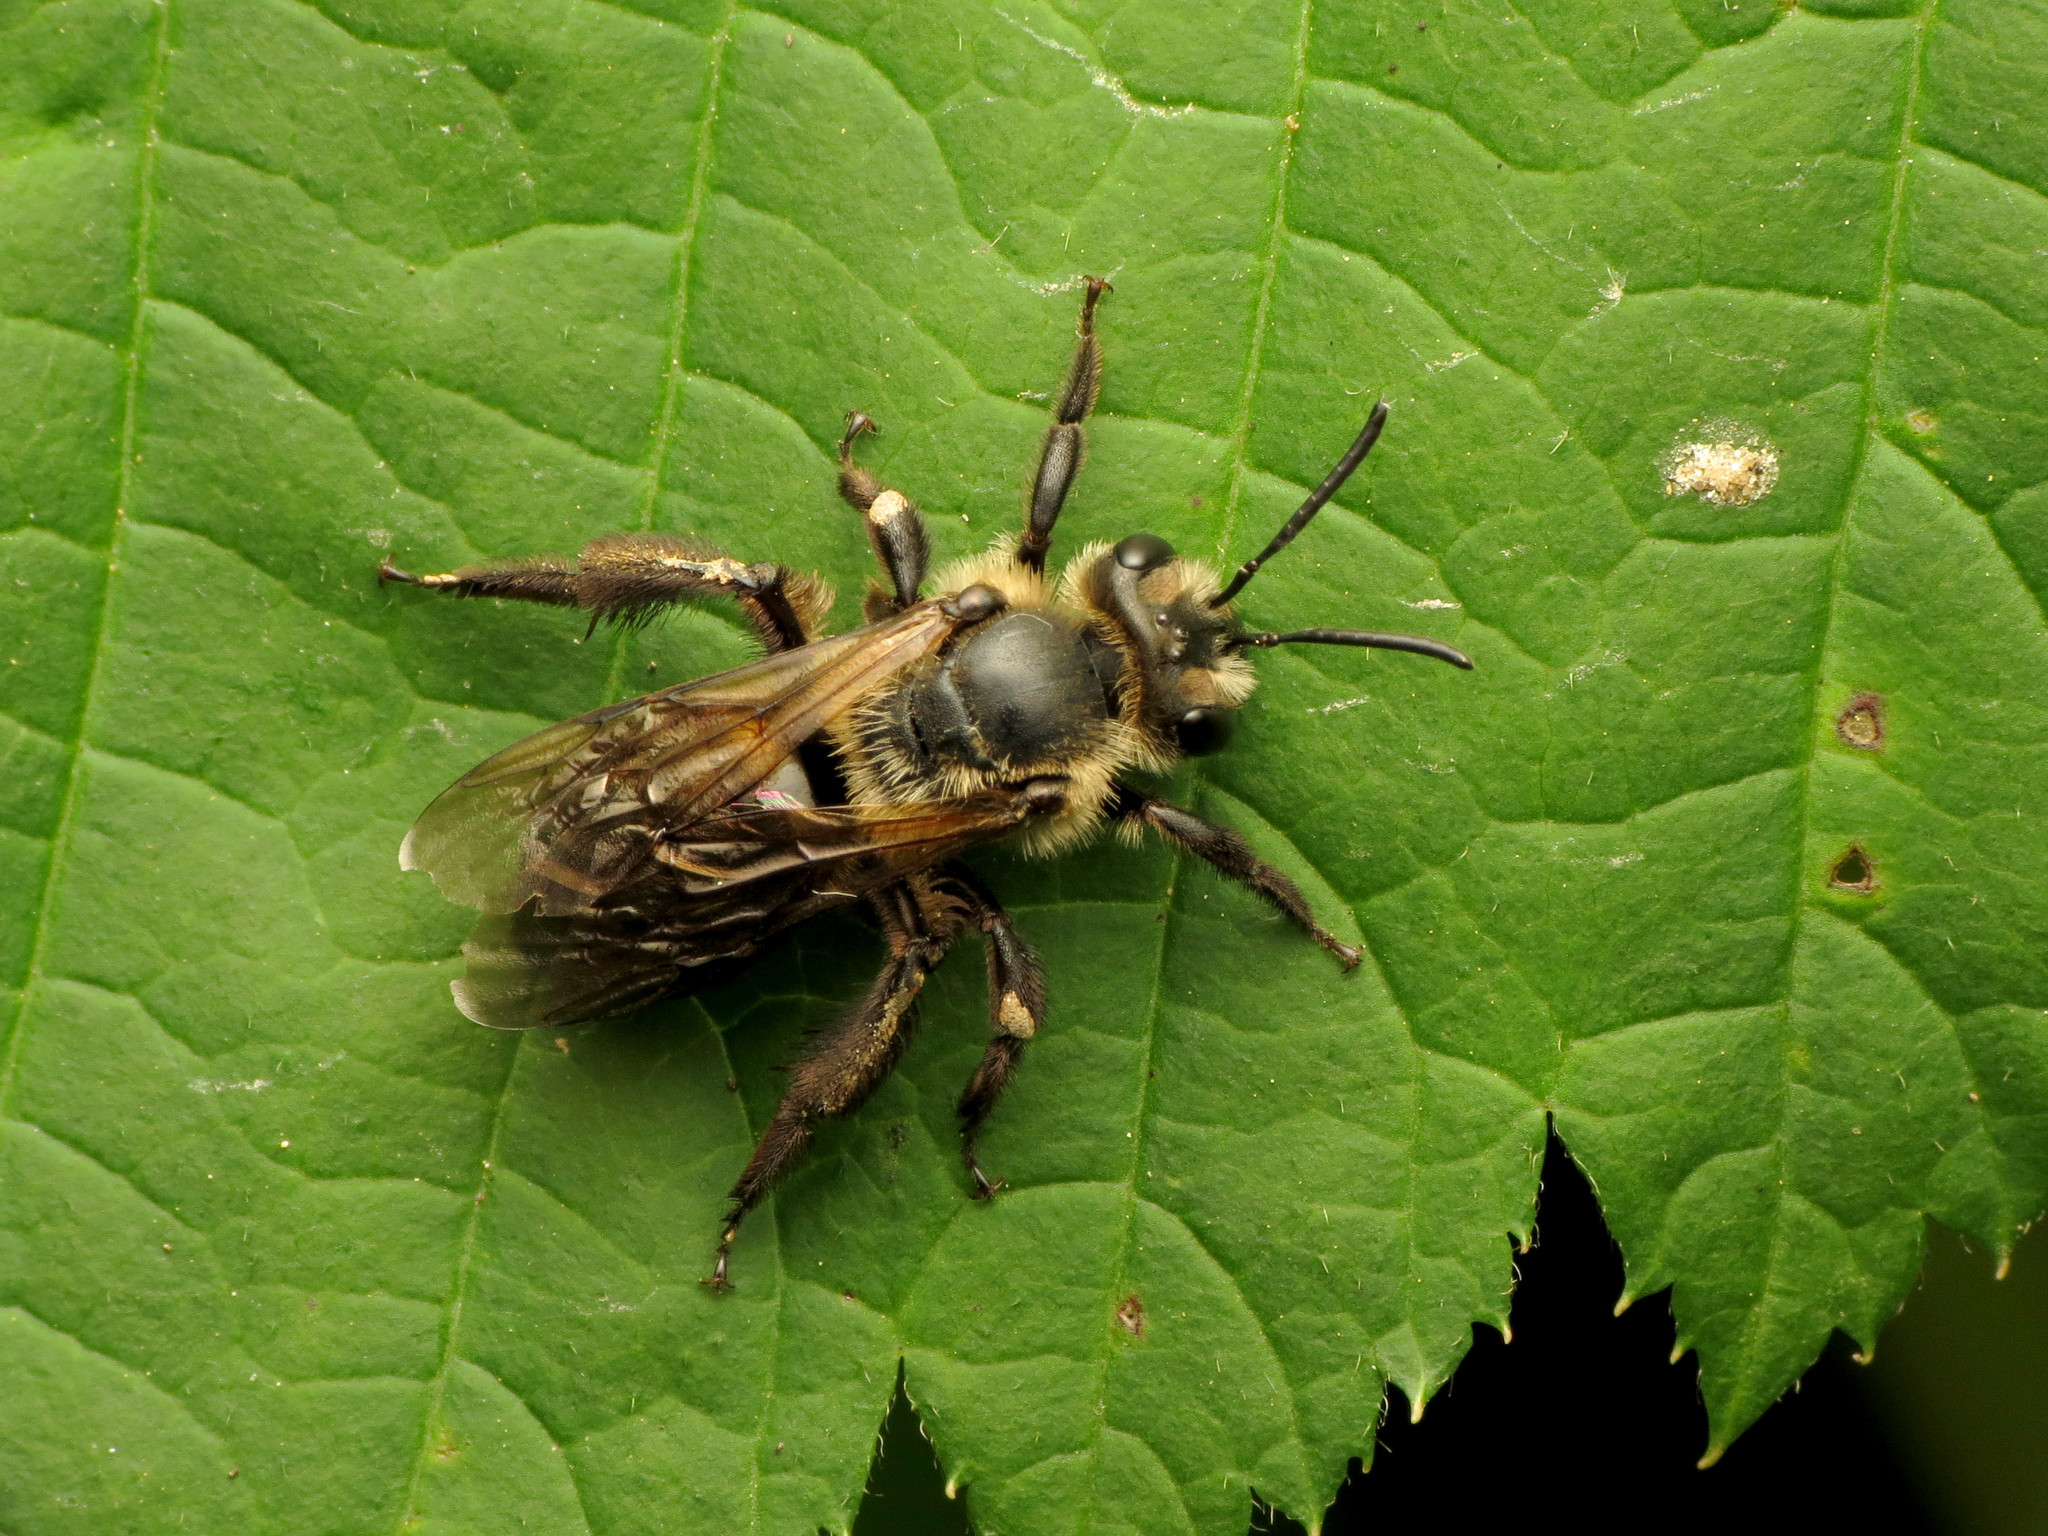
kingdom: Animalia
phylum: Arthropoda
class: Insecta
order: Hymenoptera
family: Andrenidae
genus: Andrena
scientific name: Andrena vicina
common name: Neighborly mining bee
